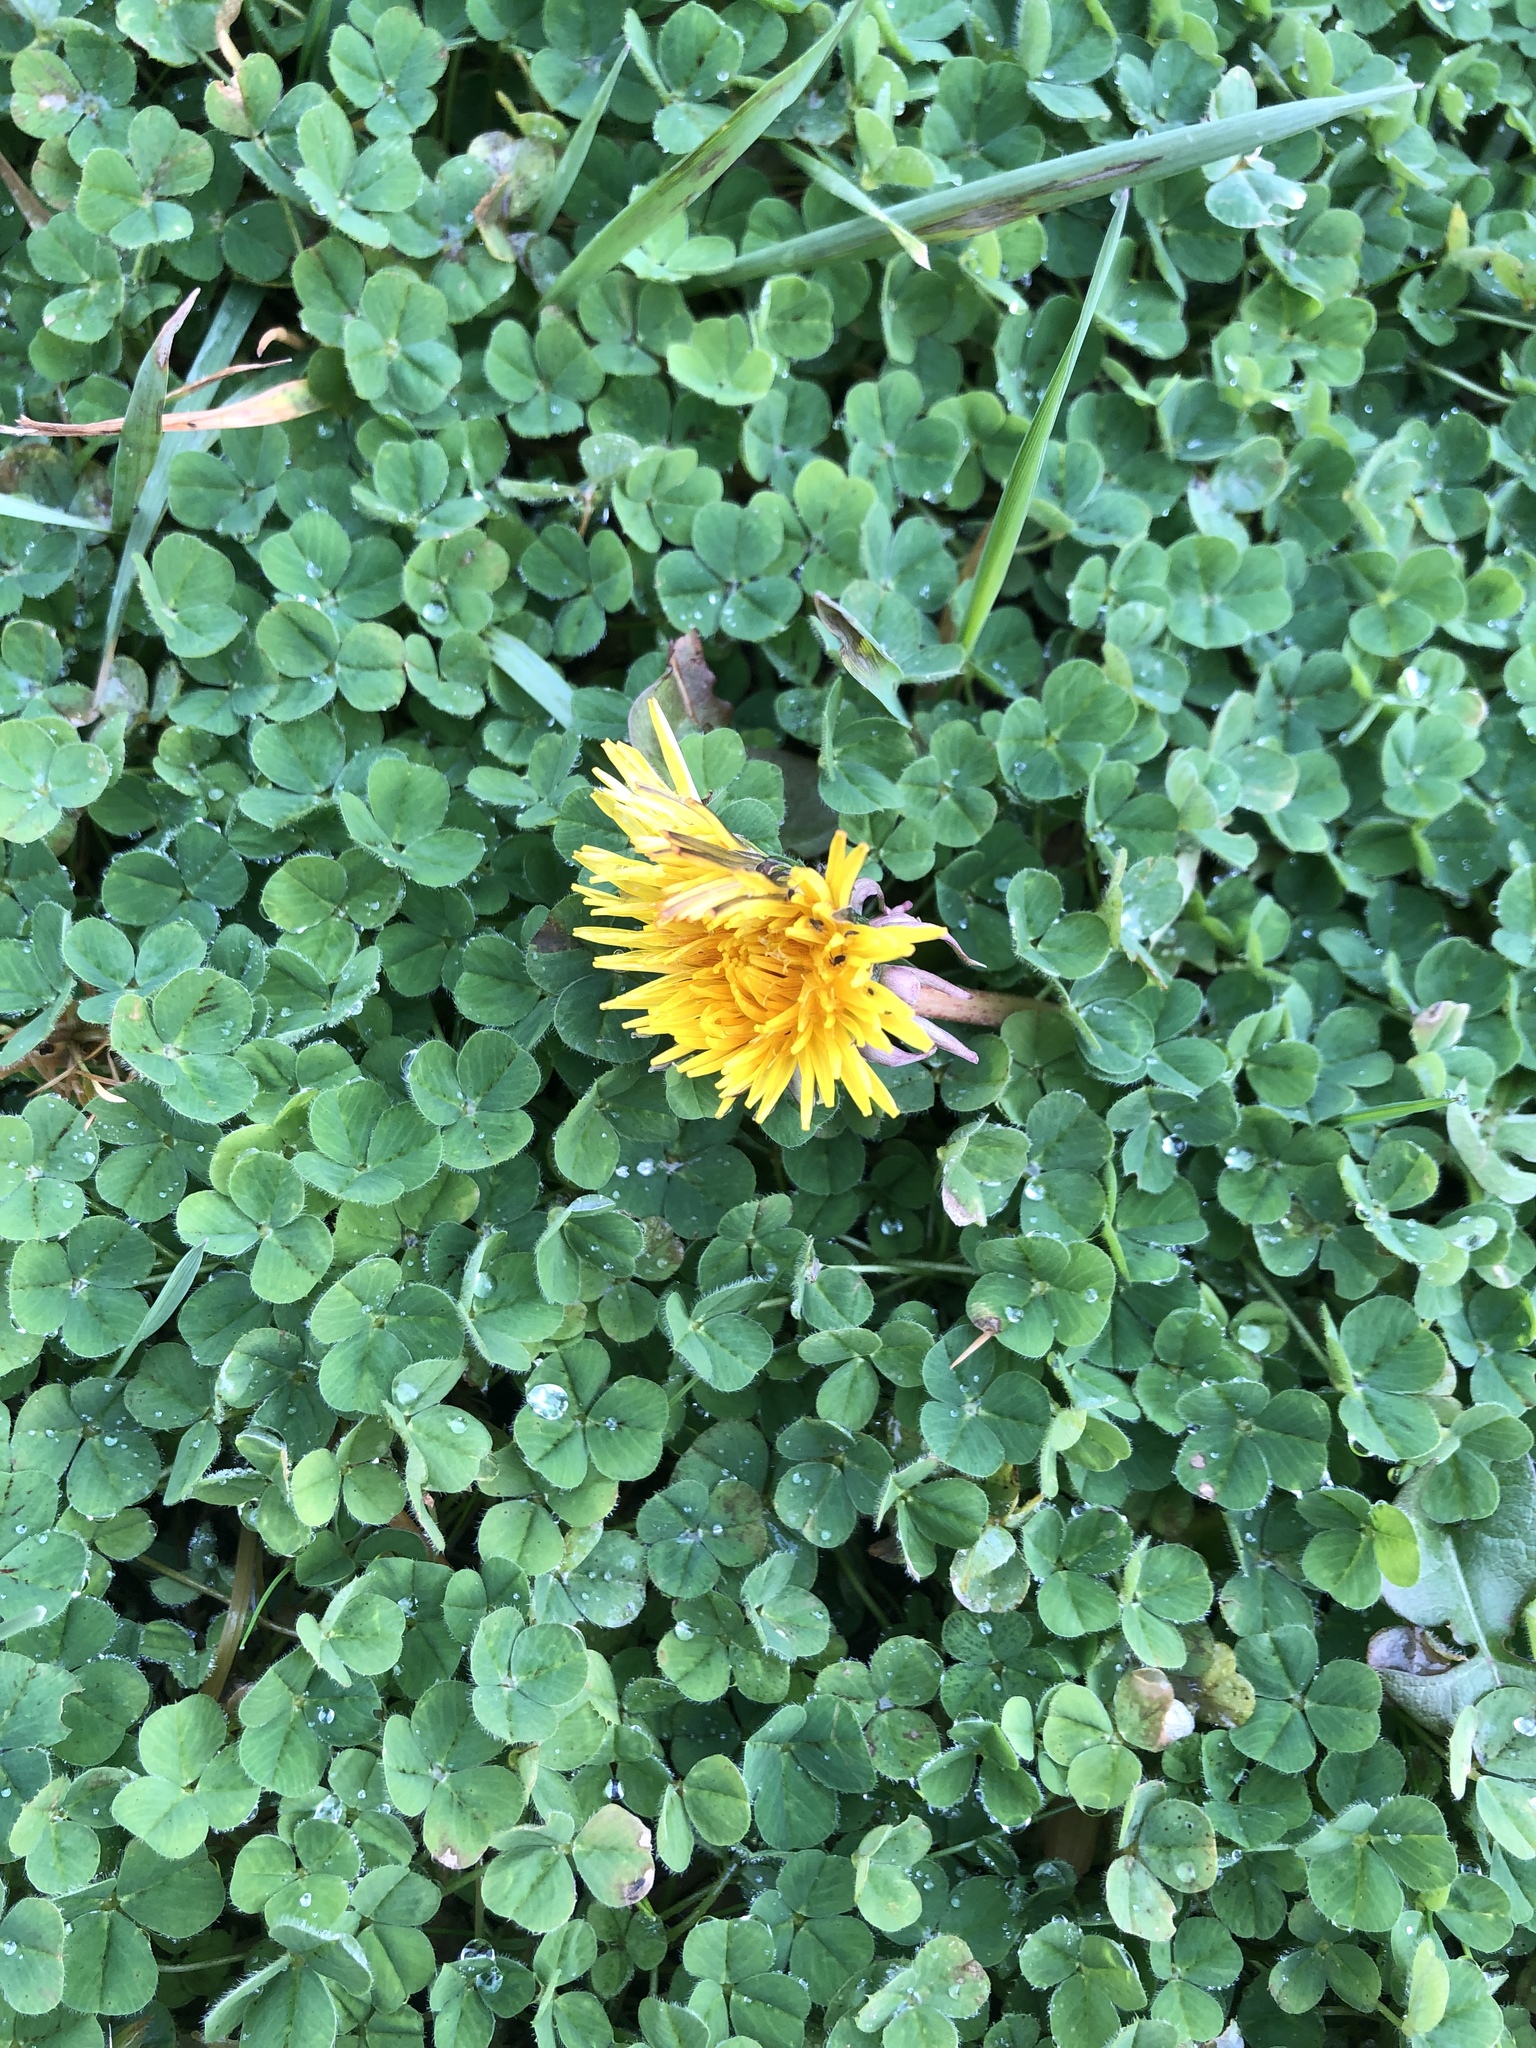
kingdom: Plantae
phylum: Tracheophyta
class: Magnoliopsida
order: Asterales
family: Asteraceae
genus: Taraxacum
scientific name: Taraxacum officinale
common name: Common dandelion
